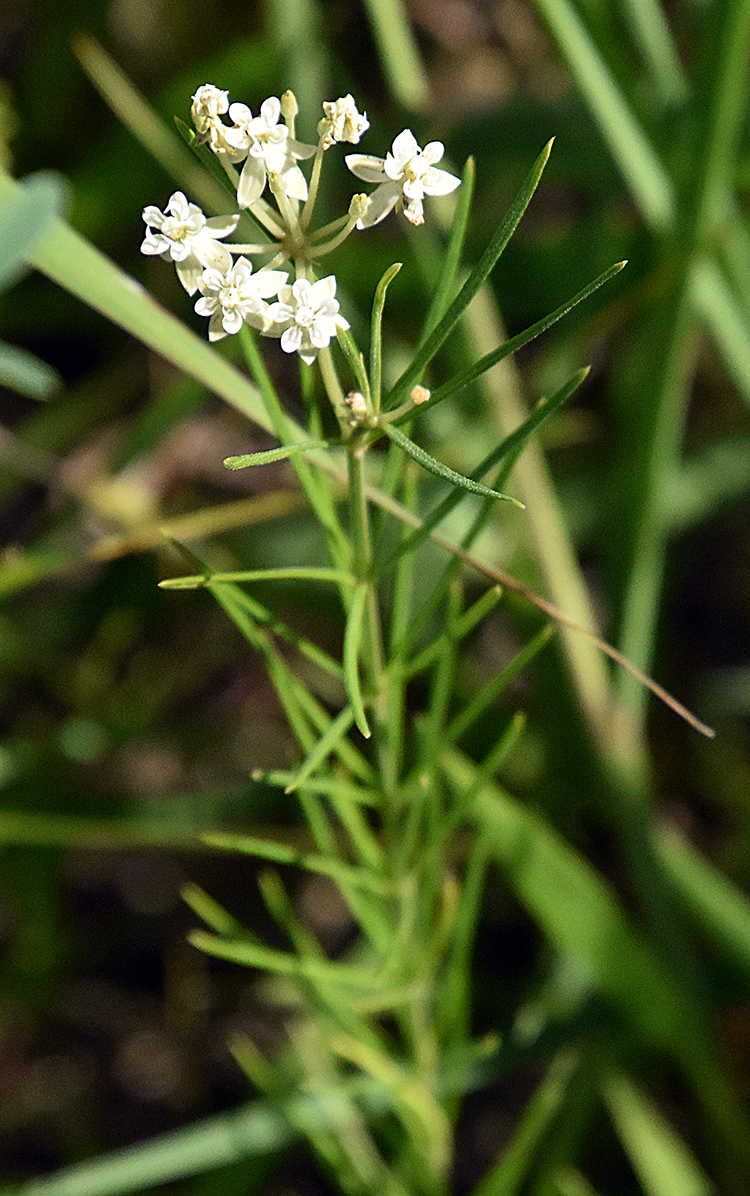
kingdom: Plantae
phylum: Tracheophyta
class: Magnoliopsida
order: Gentianales
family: Apocynaceae
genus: Asclepias
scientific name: Asclepias verticillata
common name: Eastern whorled milkweed
